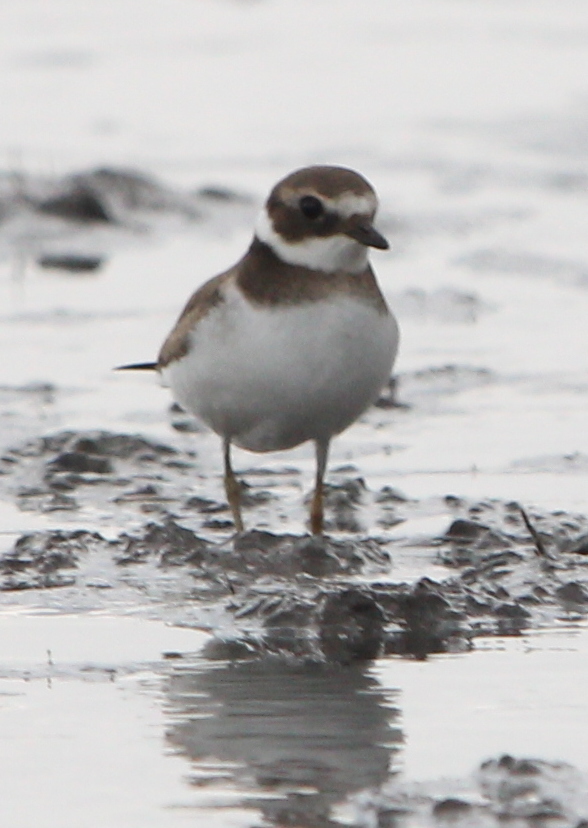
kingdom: Animalia
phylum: Chordata
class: Aves
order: Charadriiformes
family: Charadriidae
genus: Charadrius
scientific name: Charadrius hiaticula
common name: Common ringed plover
